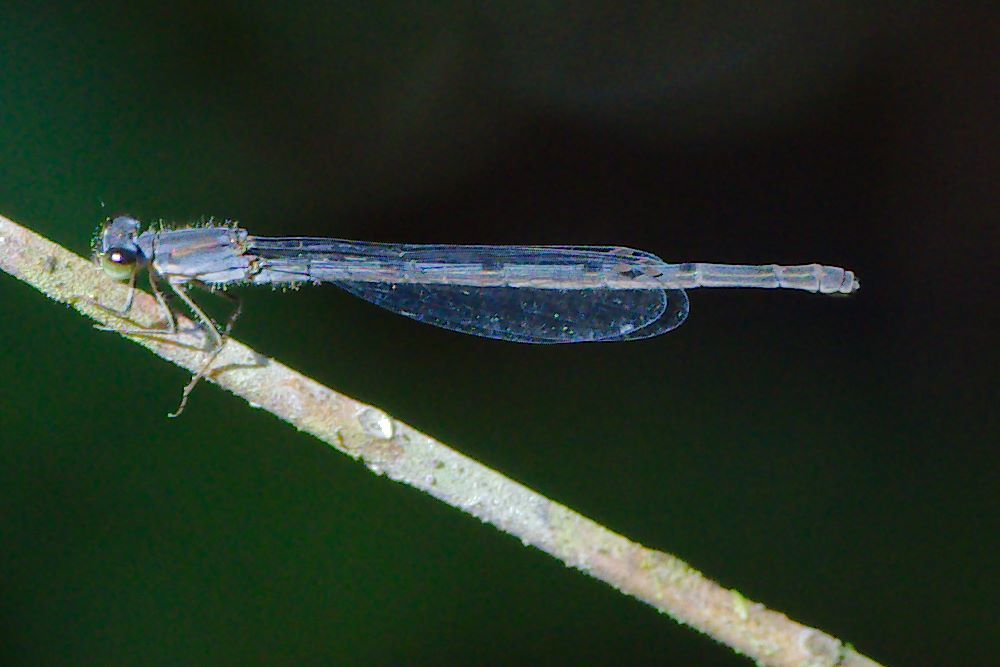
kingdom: Animalia
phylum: Arthropoda
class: Insecta
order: Odonata
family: Coenagrionidae
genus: Ischnura
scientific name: Ischnura posita
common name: Fragile forktail
